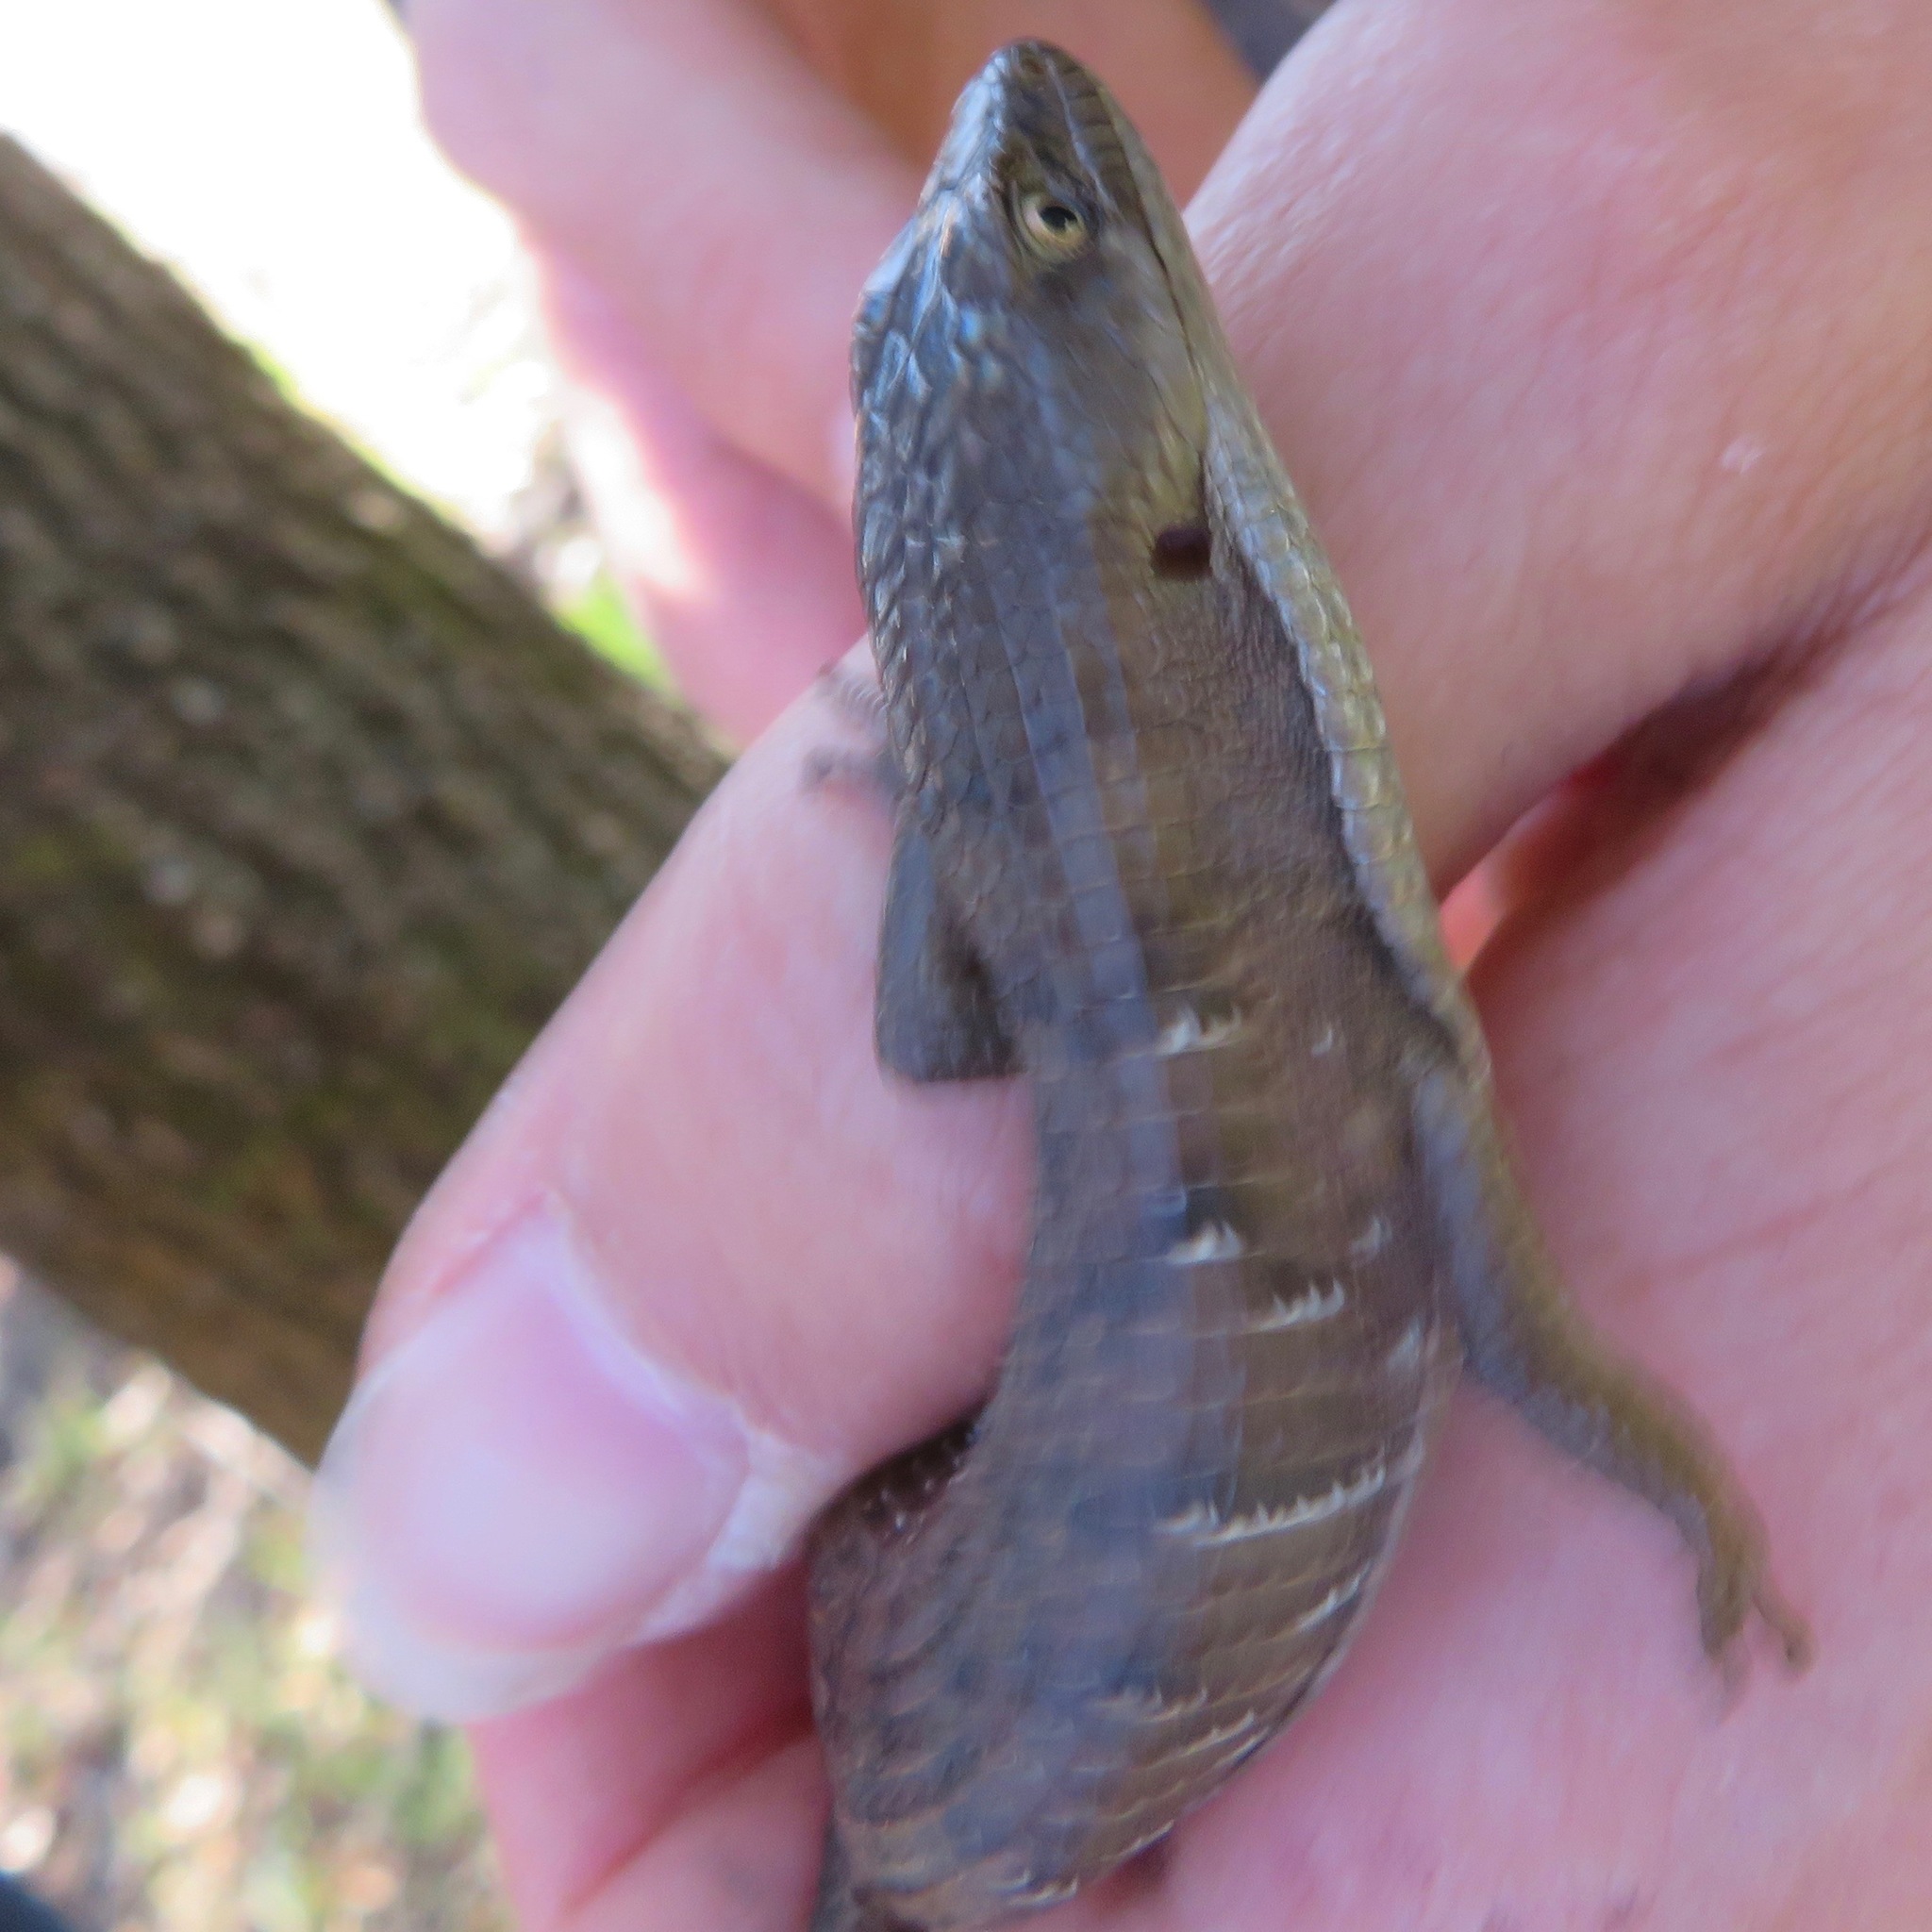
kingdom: Animalia
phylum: Chordata
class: Squamata
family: Anguidae
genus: Elgaria
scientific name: Elgaria multicarinata
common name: Southern alligator lizard
